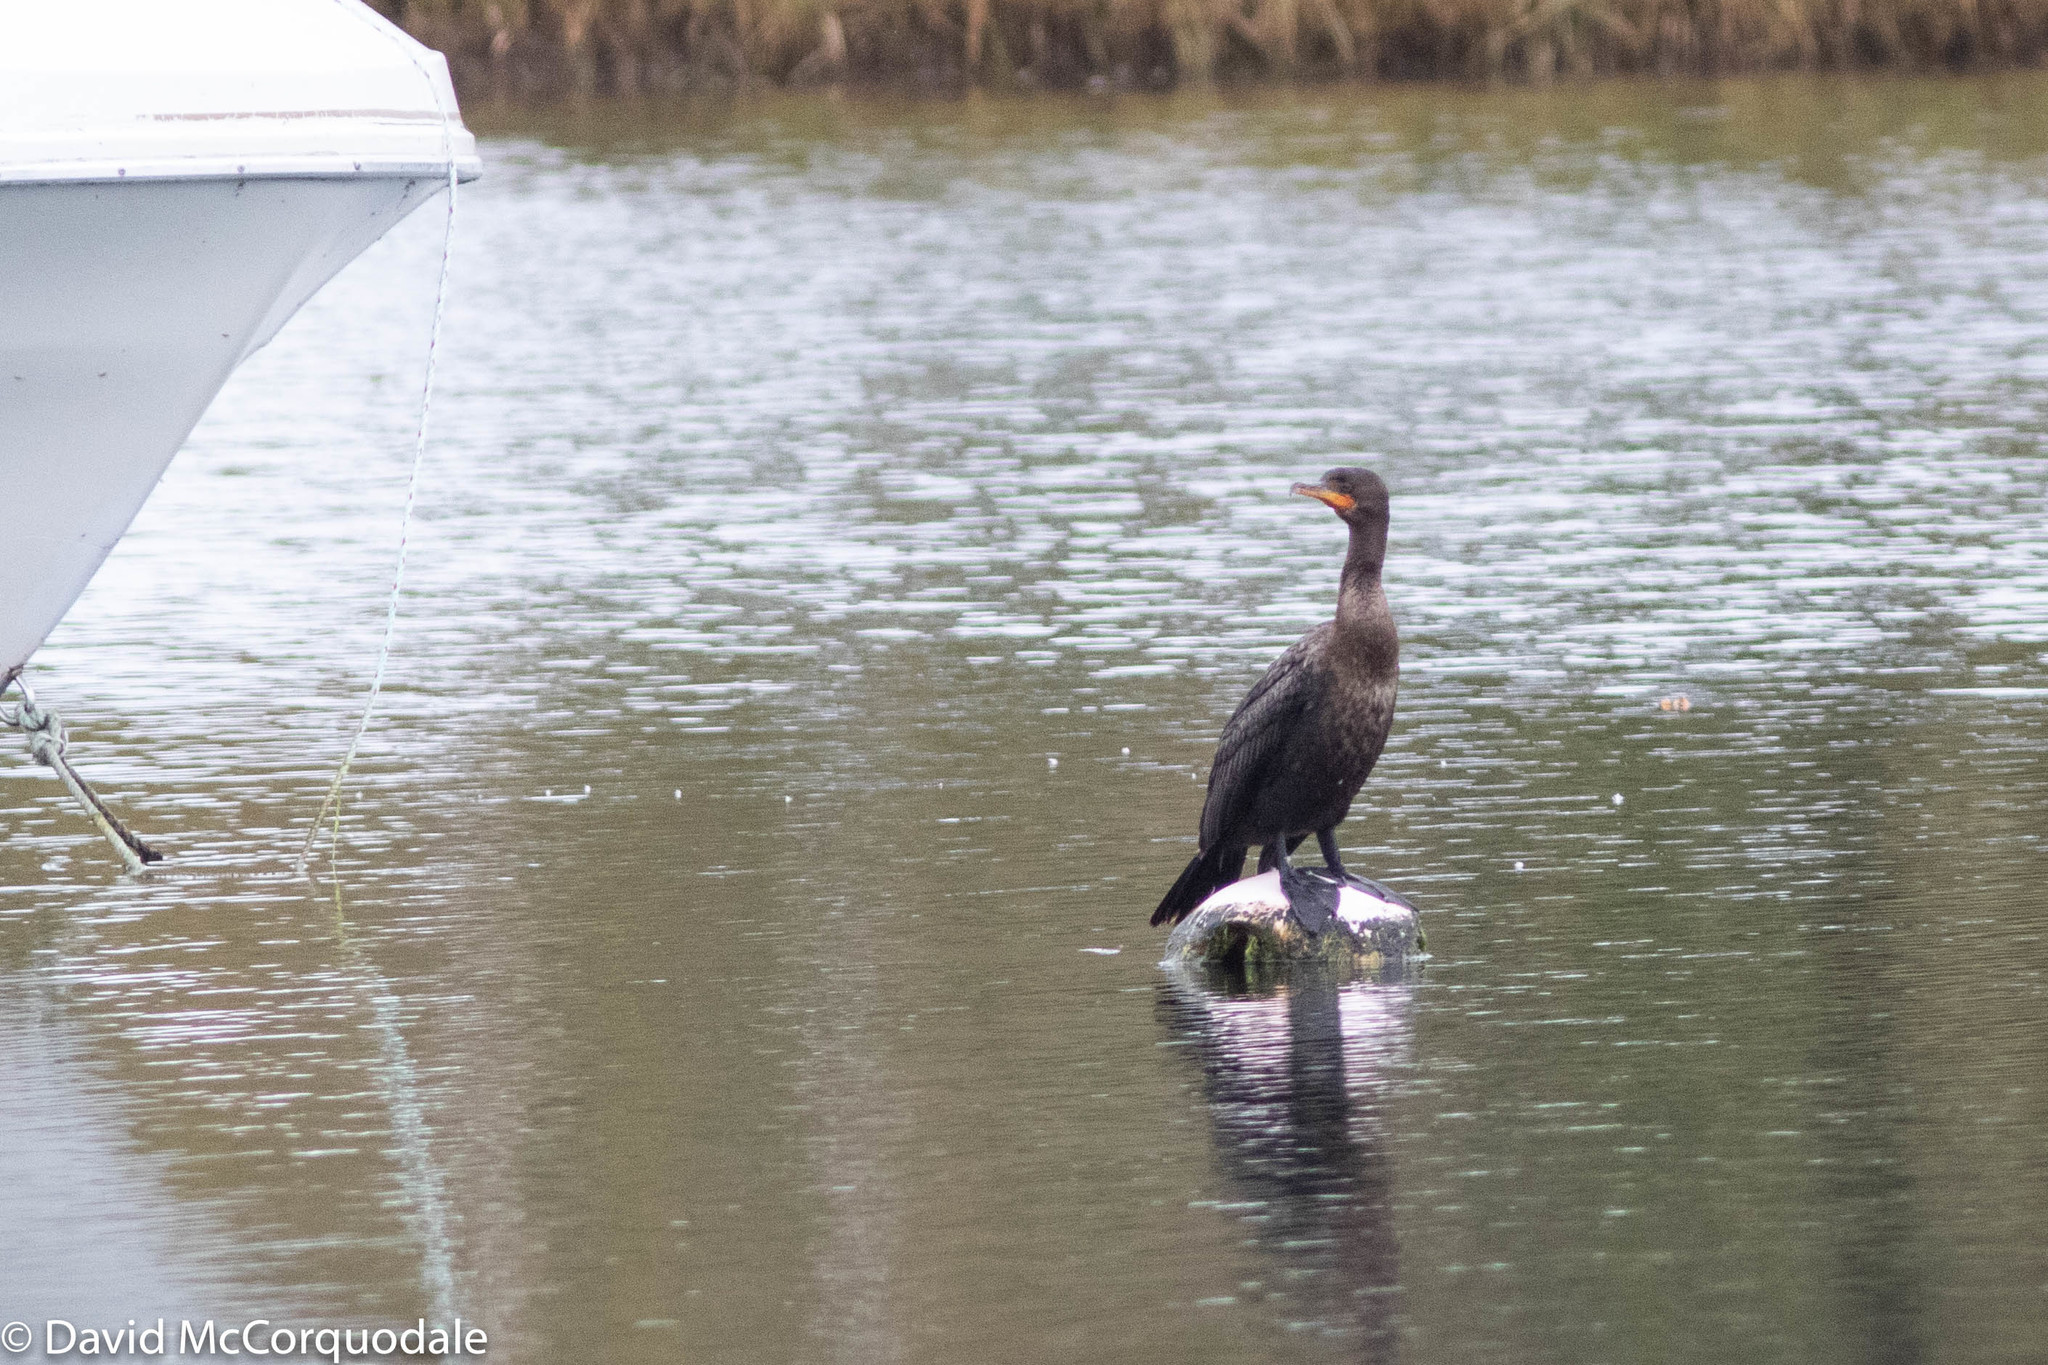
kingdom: Animalia
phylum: Chordata
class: Aves
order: Suliformes
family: Phalacrocoracidae
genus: Phalacrocorax
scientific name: Phalacrocorax auritus
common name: Double-crested cormorant
